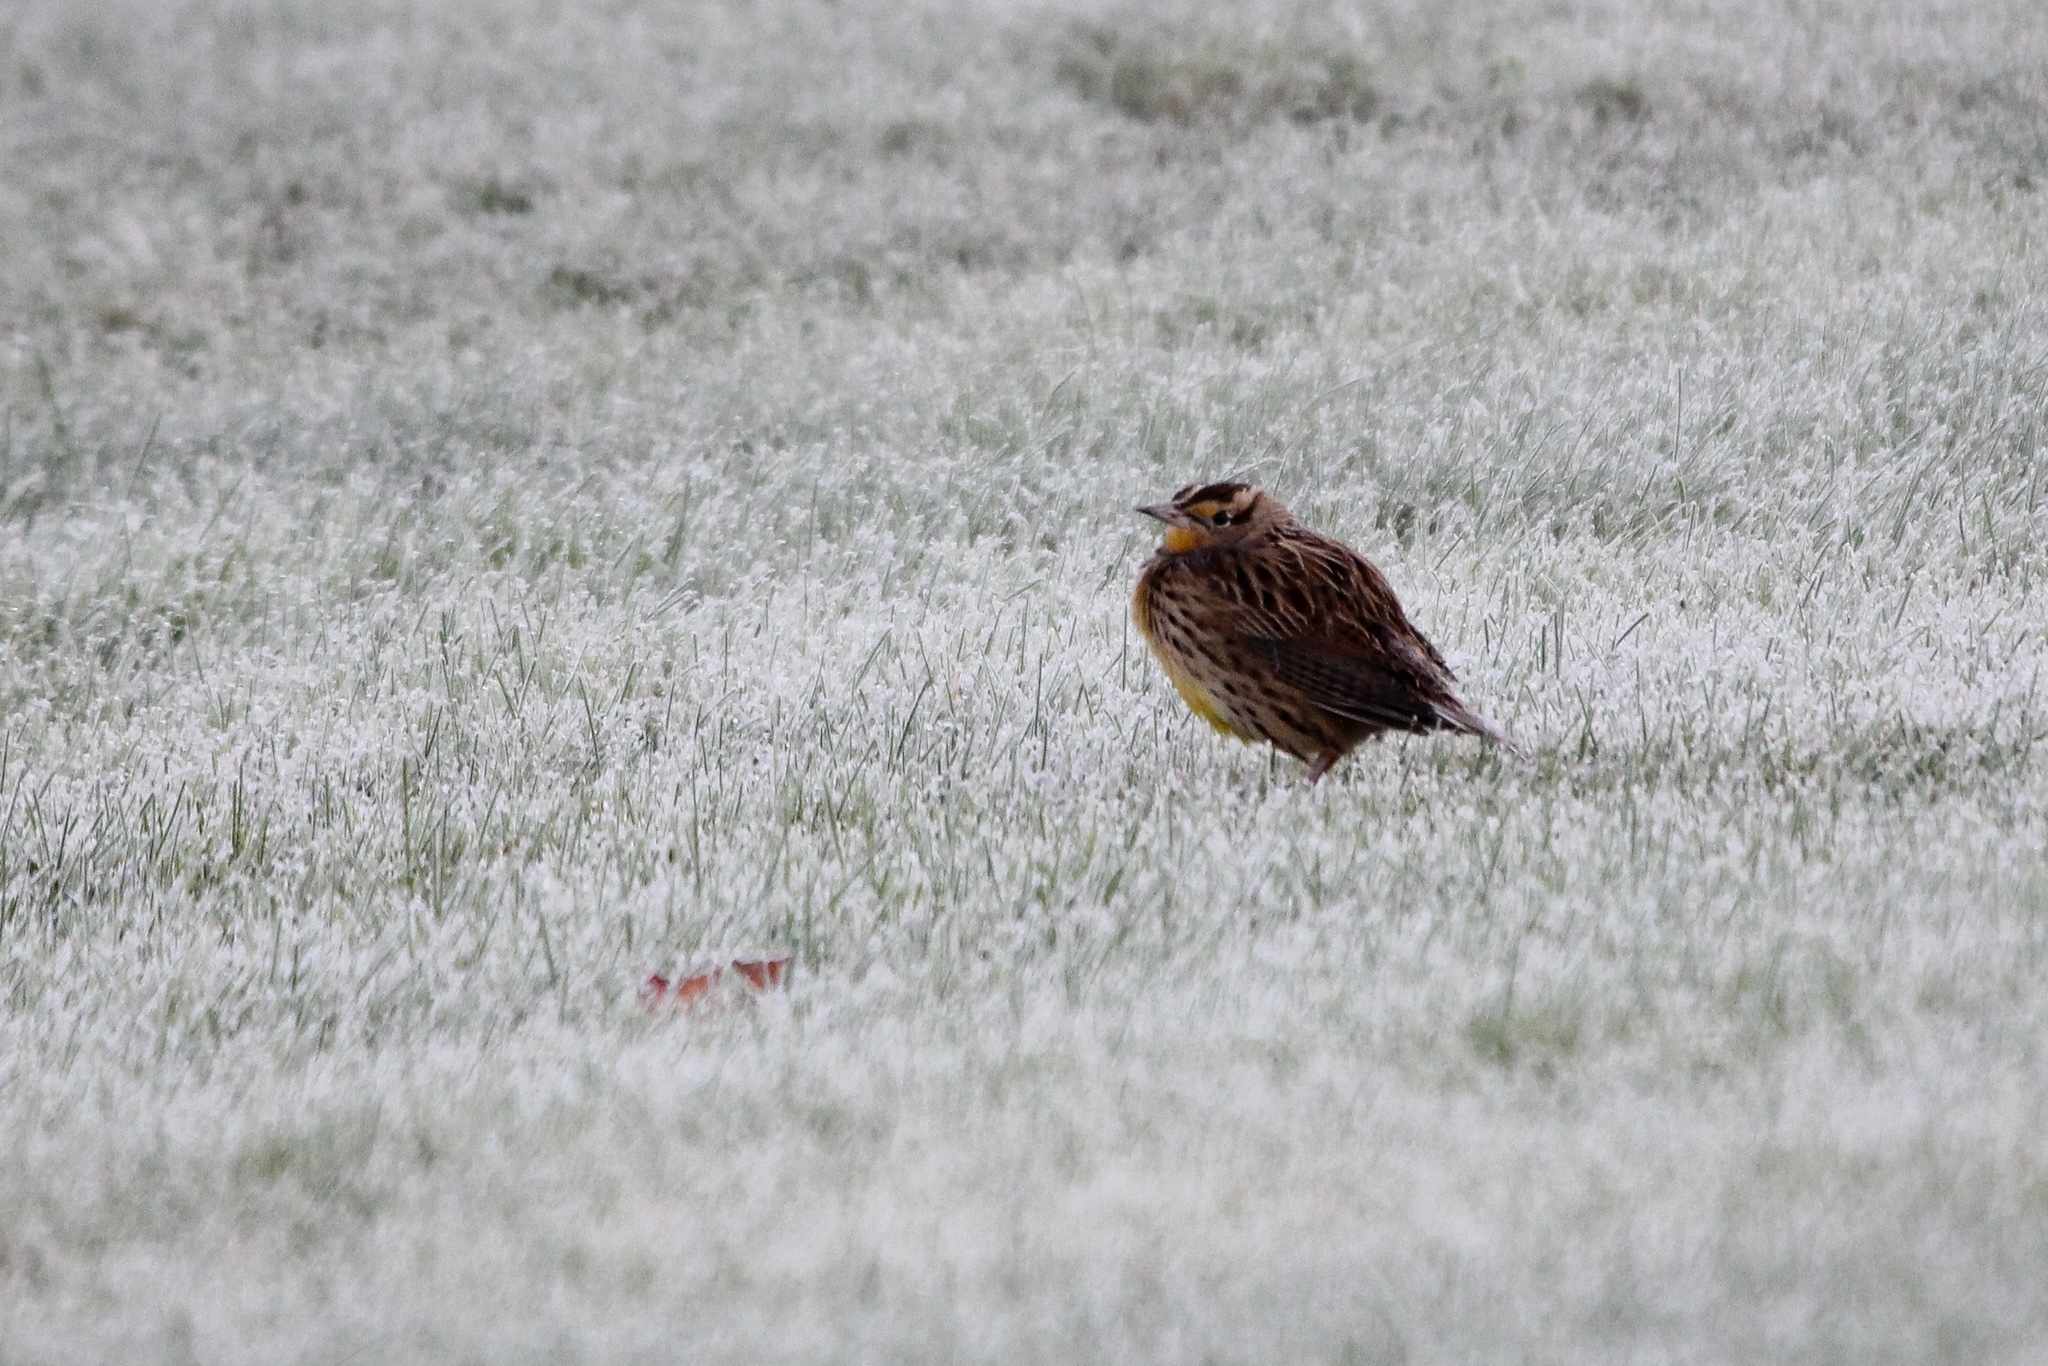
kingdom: Animalia
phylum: Chordata
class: Aves
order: Passeriformes
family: Icteridae
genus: Sturnella
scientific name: Sturnella magna
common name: Eastern meadowlark
